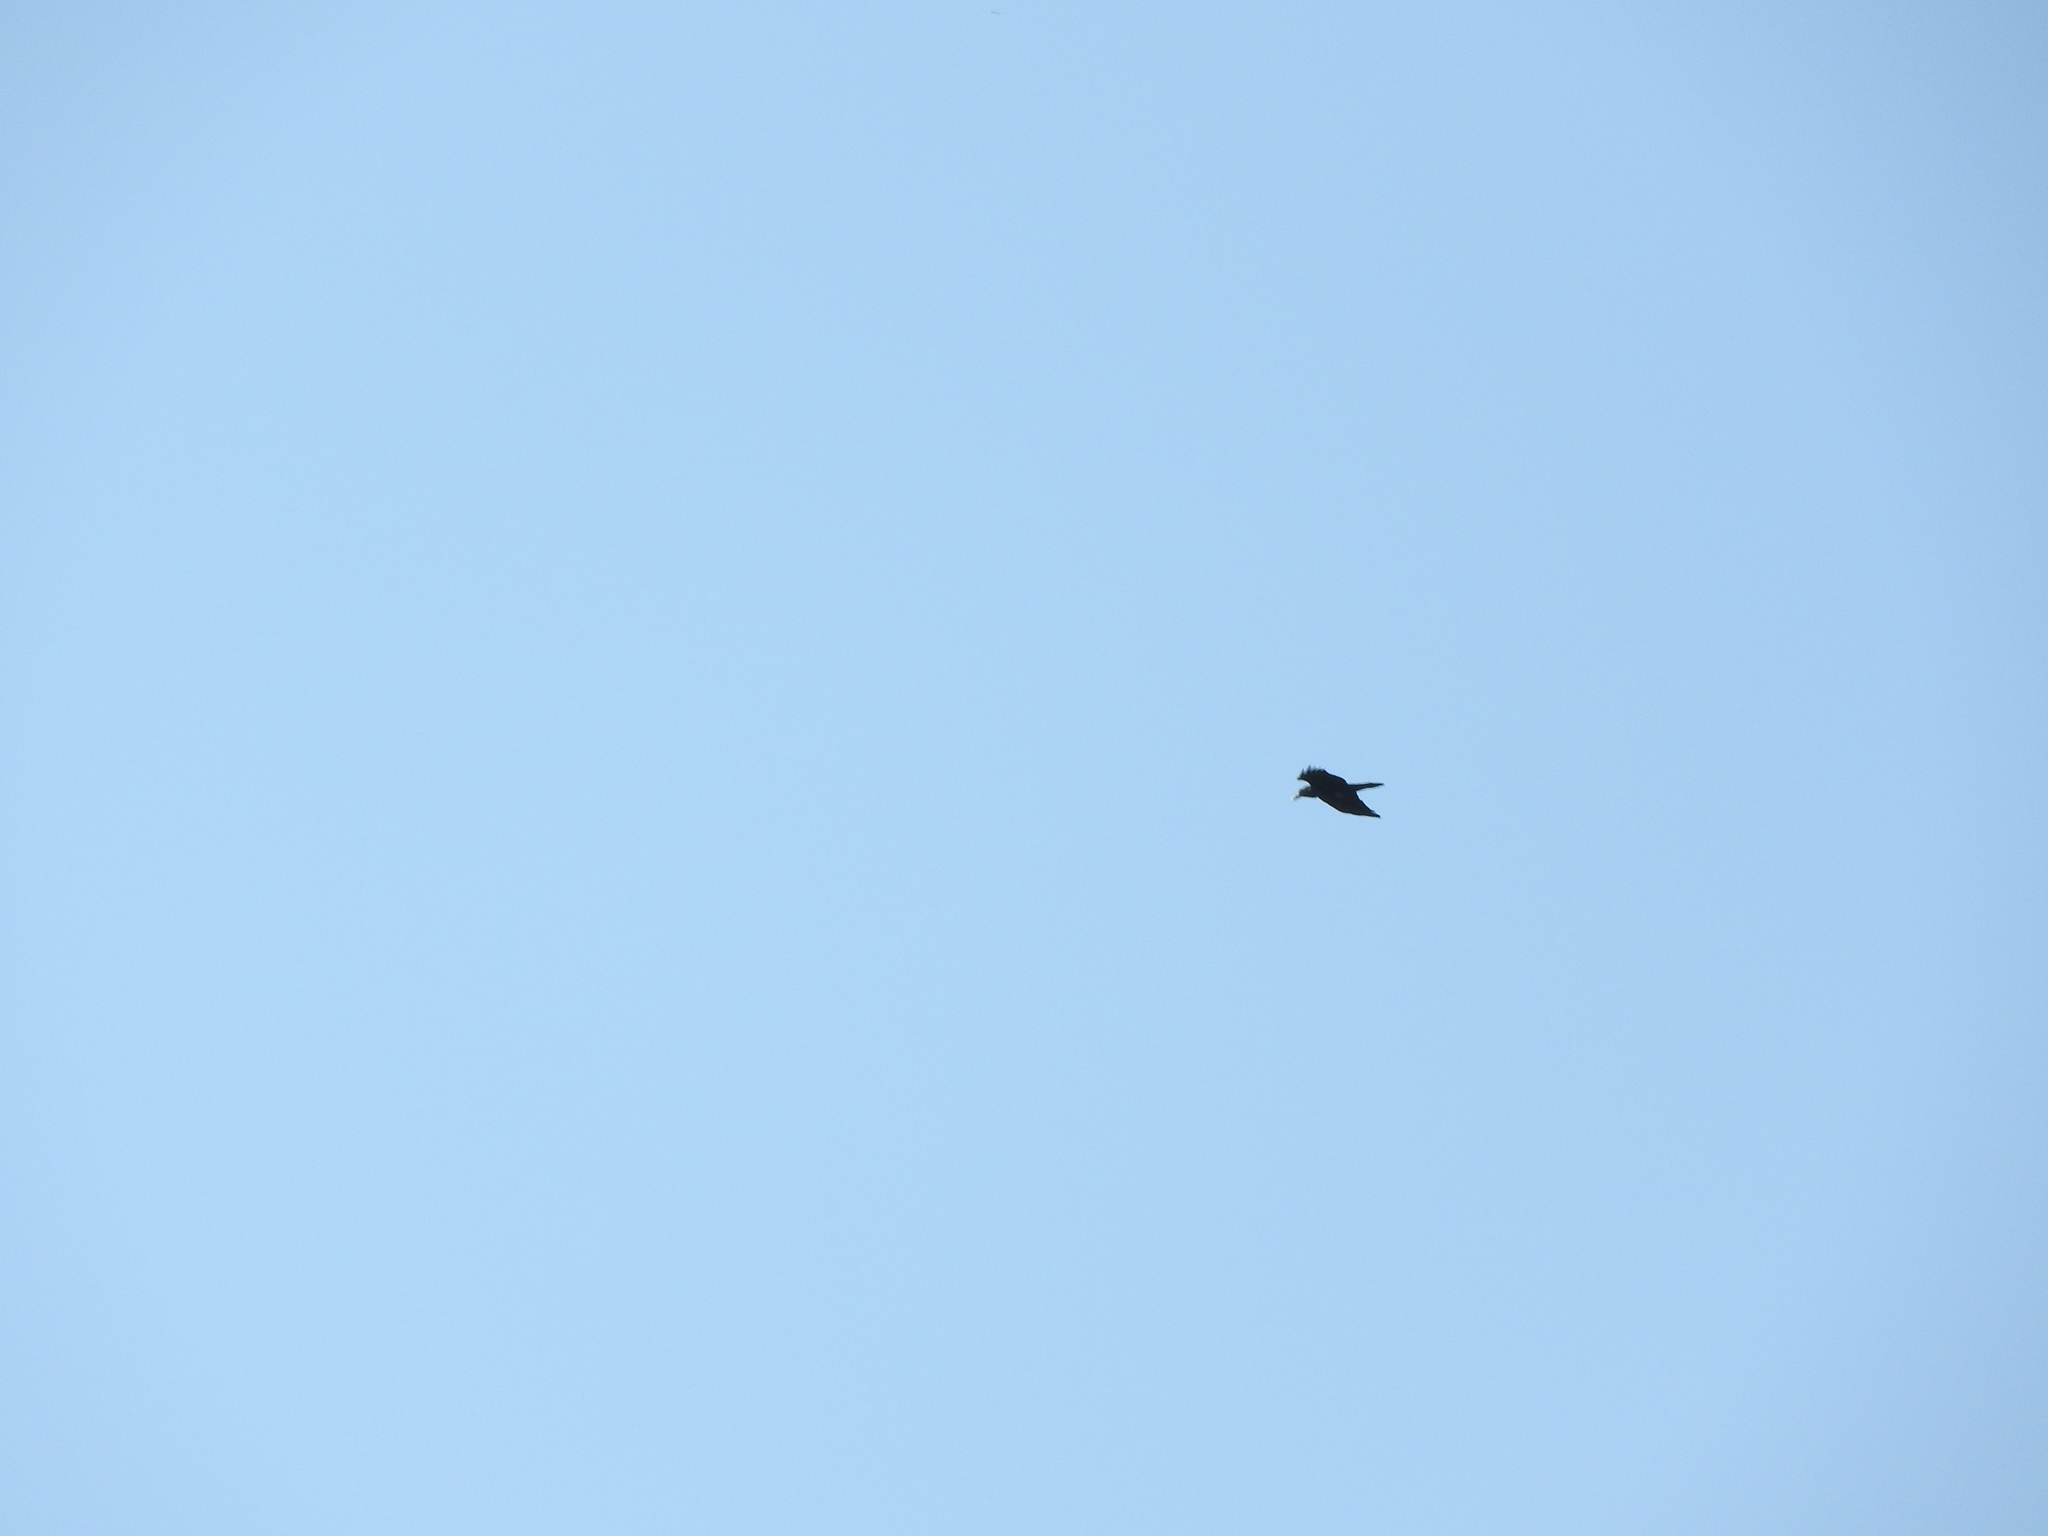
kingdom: Animalia
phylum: Chordata
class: Aves
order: Passeriformes
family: Corvidae
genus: Corvus
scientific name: Corvus corax
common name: Common raven
